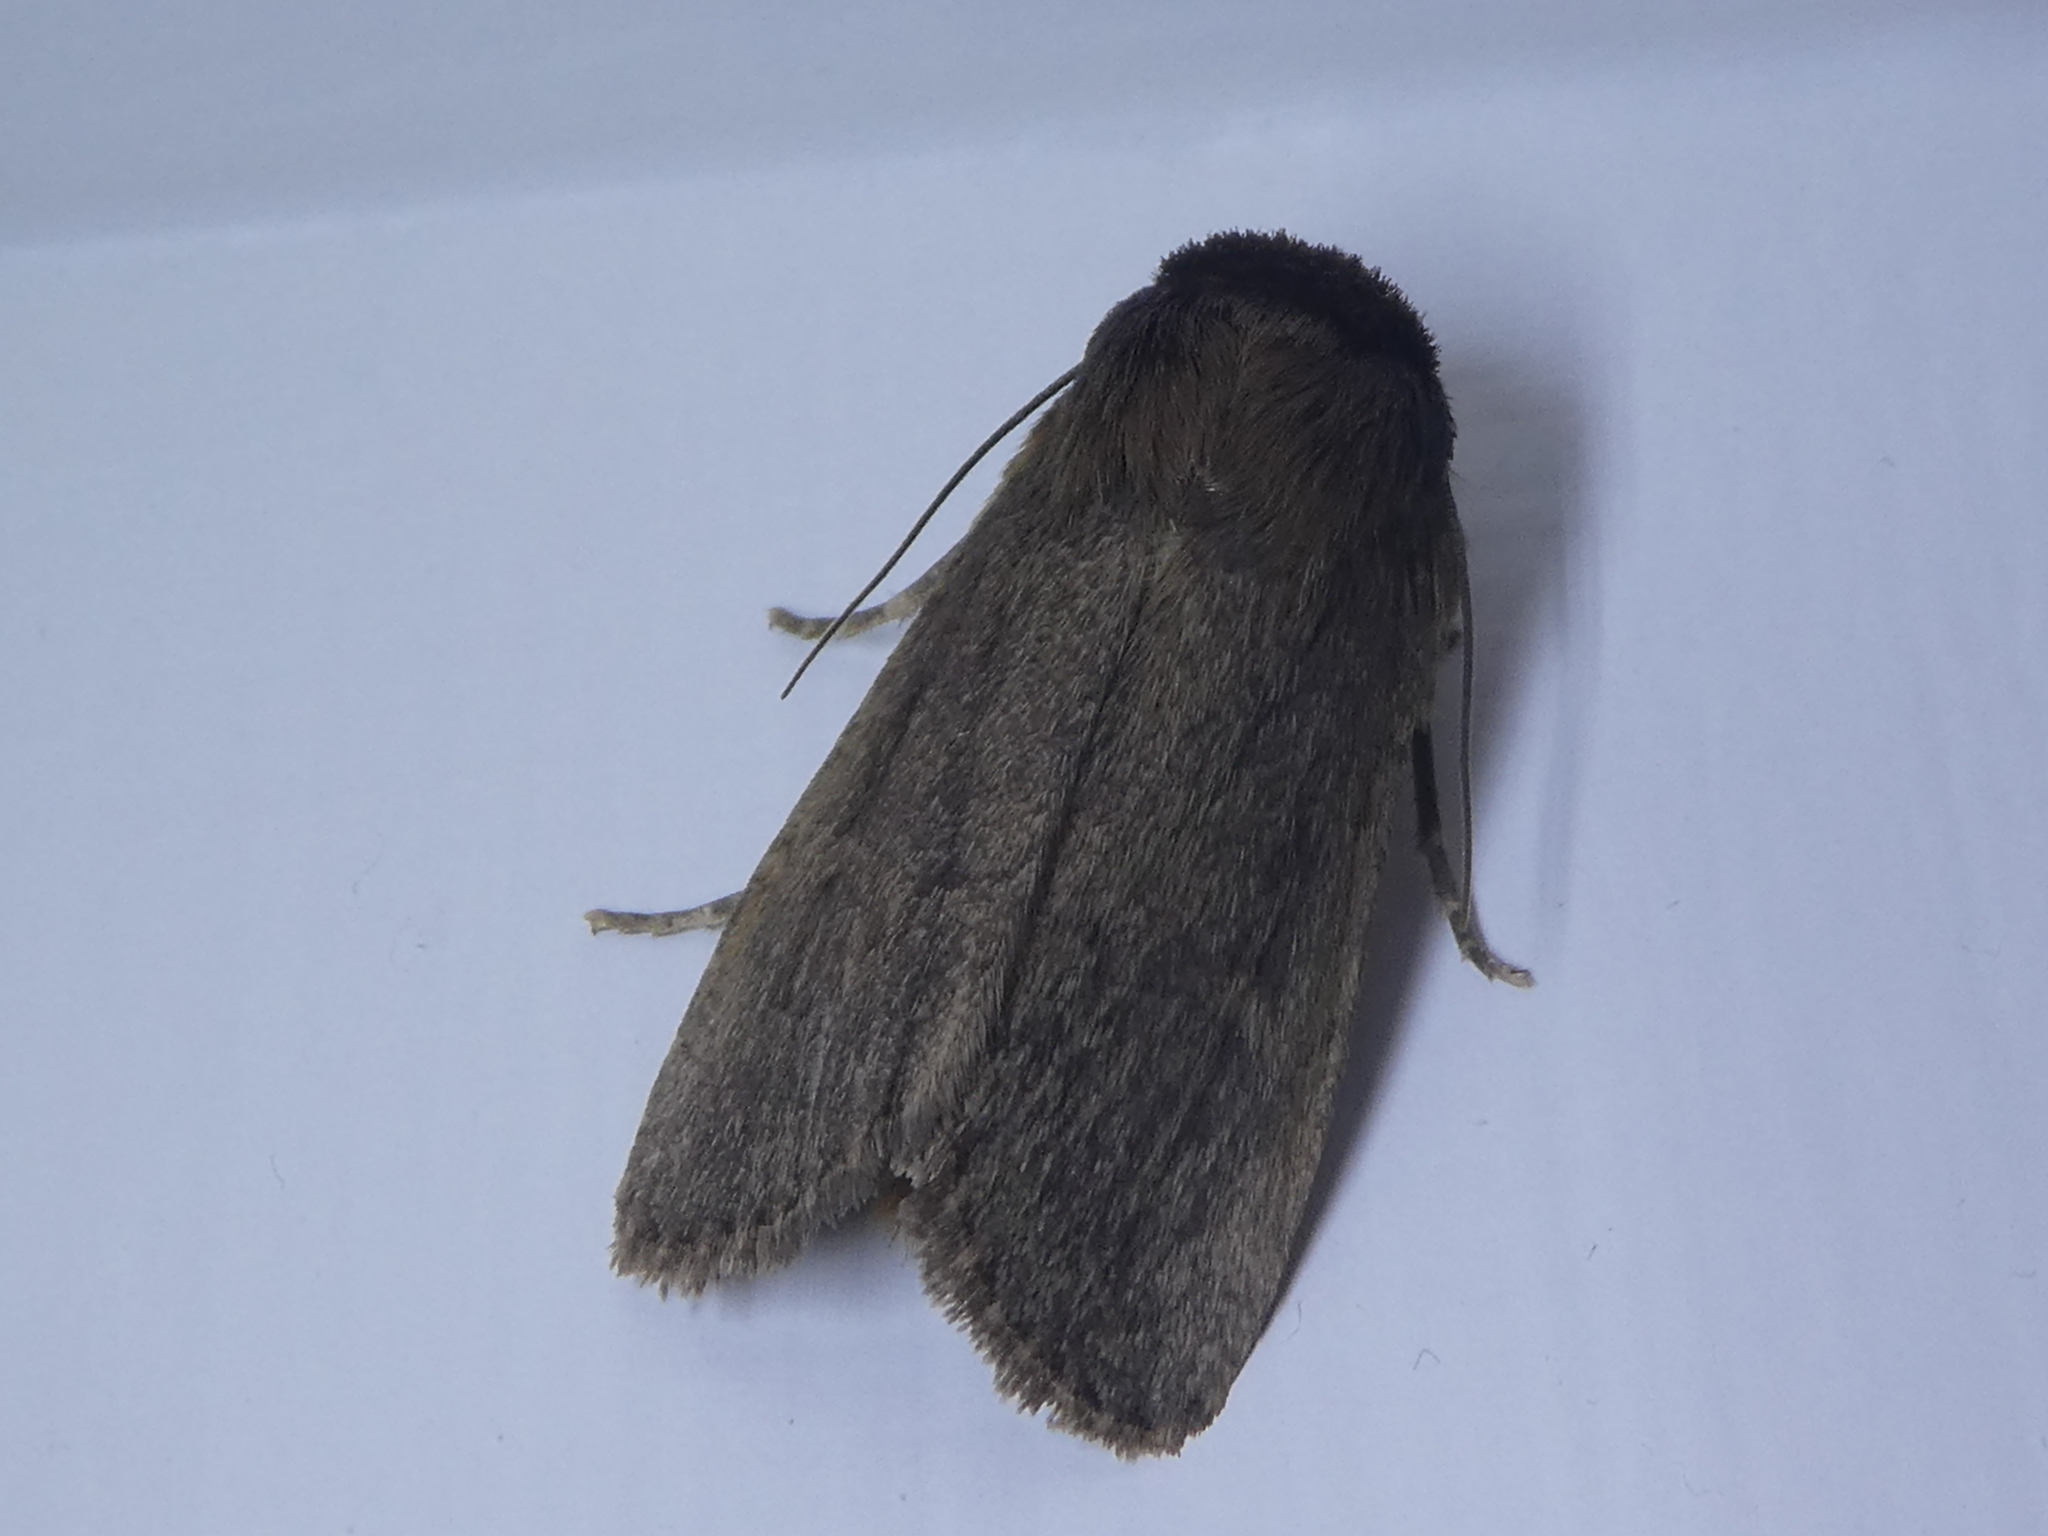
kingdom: Animalia
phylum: Arthropoda
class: Insecta
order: Lepidoptera
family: Noctuidae
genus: Bityla
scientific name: Bityla defigurata
